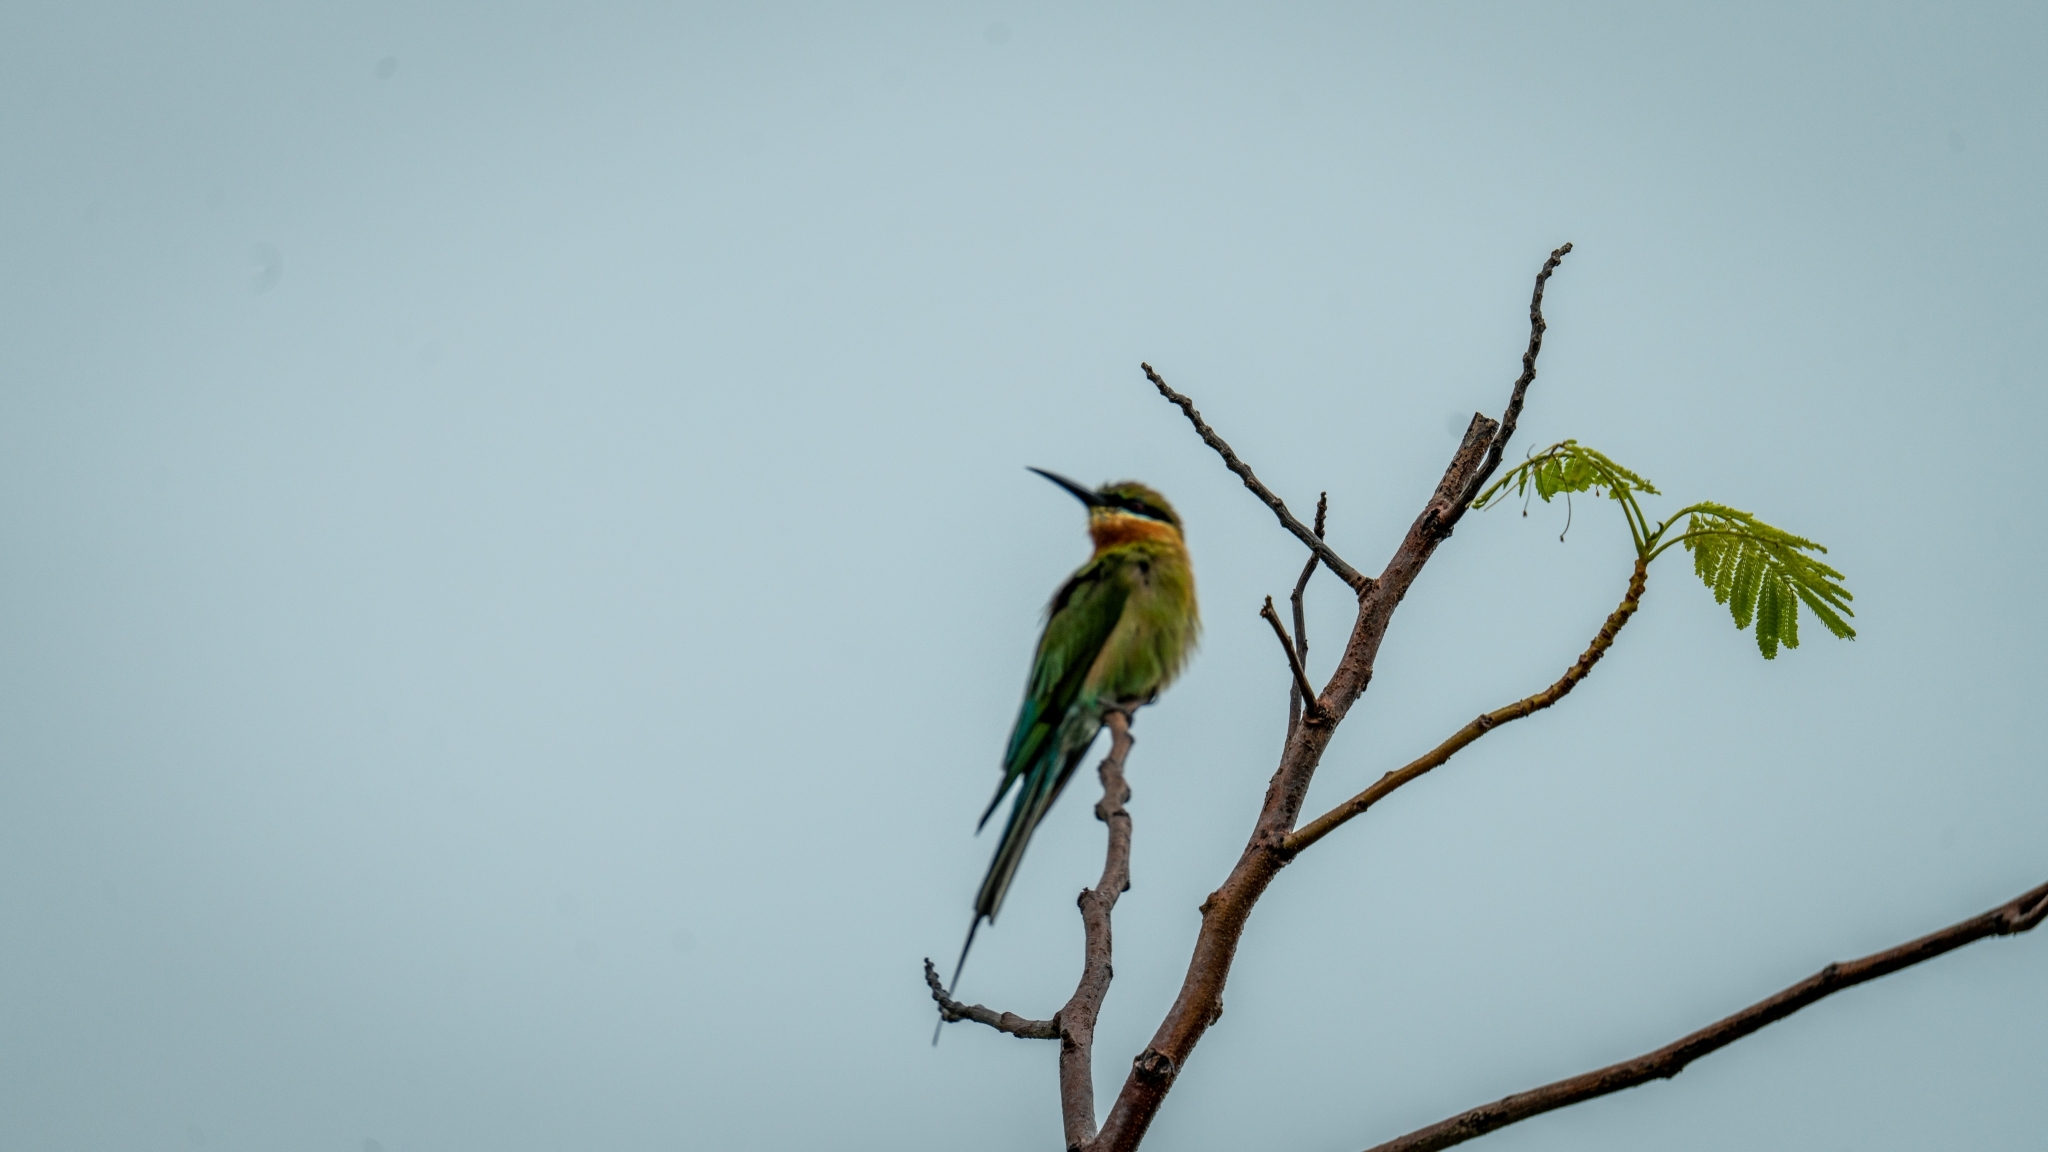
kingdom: Animalia
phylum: Chordata
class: Aves
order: Coraciiformes
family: Meropidae
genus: Merops
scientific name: Merops philippinus
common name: Blue-tailed bee-eater
